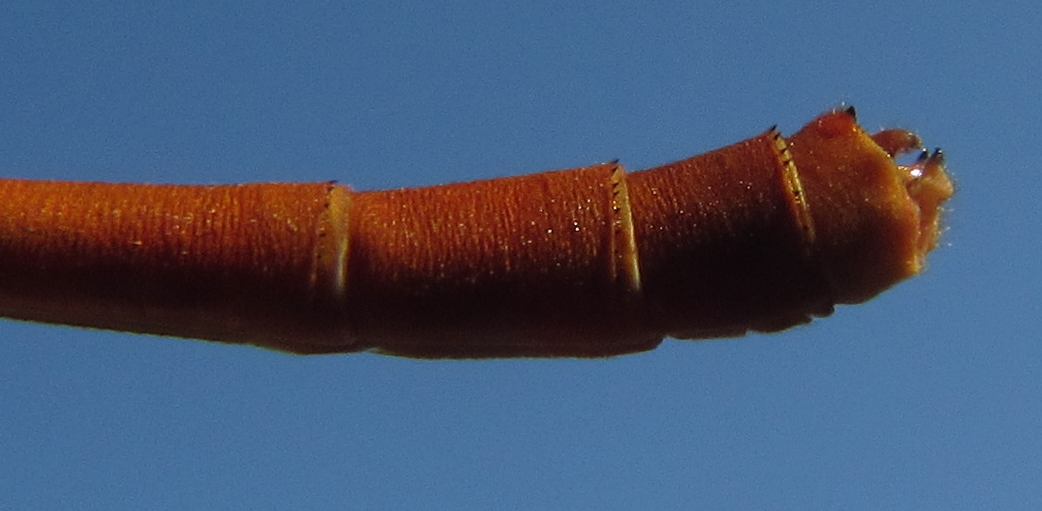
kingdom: Animalia
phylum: Arthropoda
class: Insecta
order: Odonata
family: Coenagrionidae
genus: Ceriagrion
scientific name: Ceriagrion glabrum
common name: Common pond damsel
